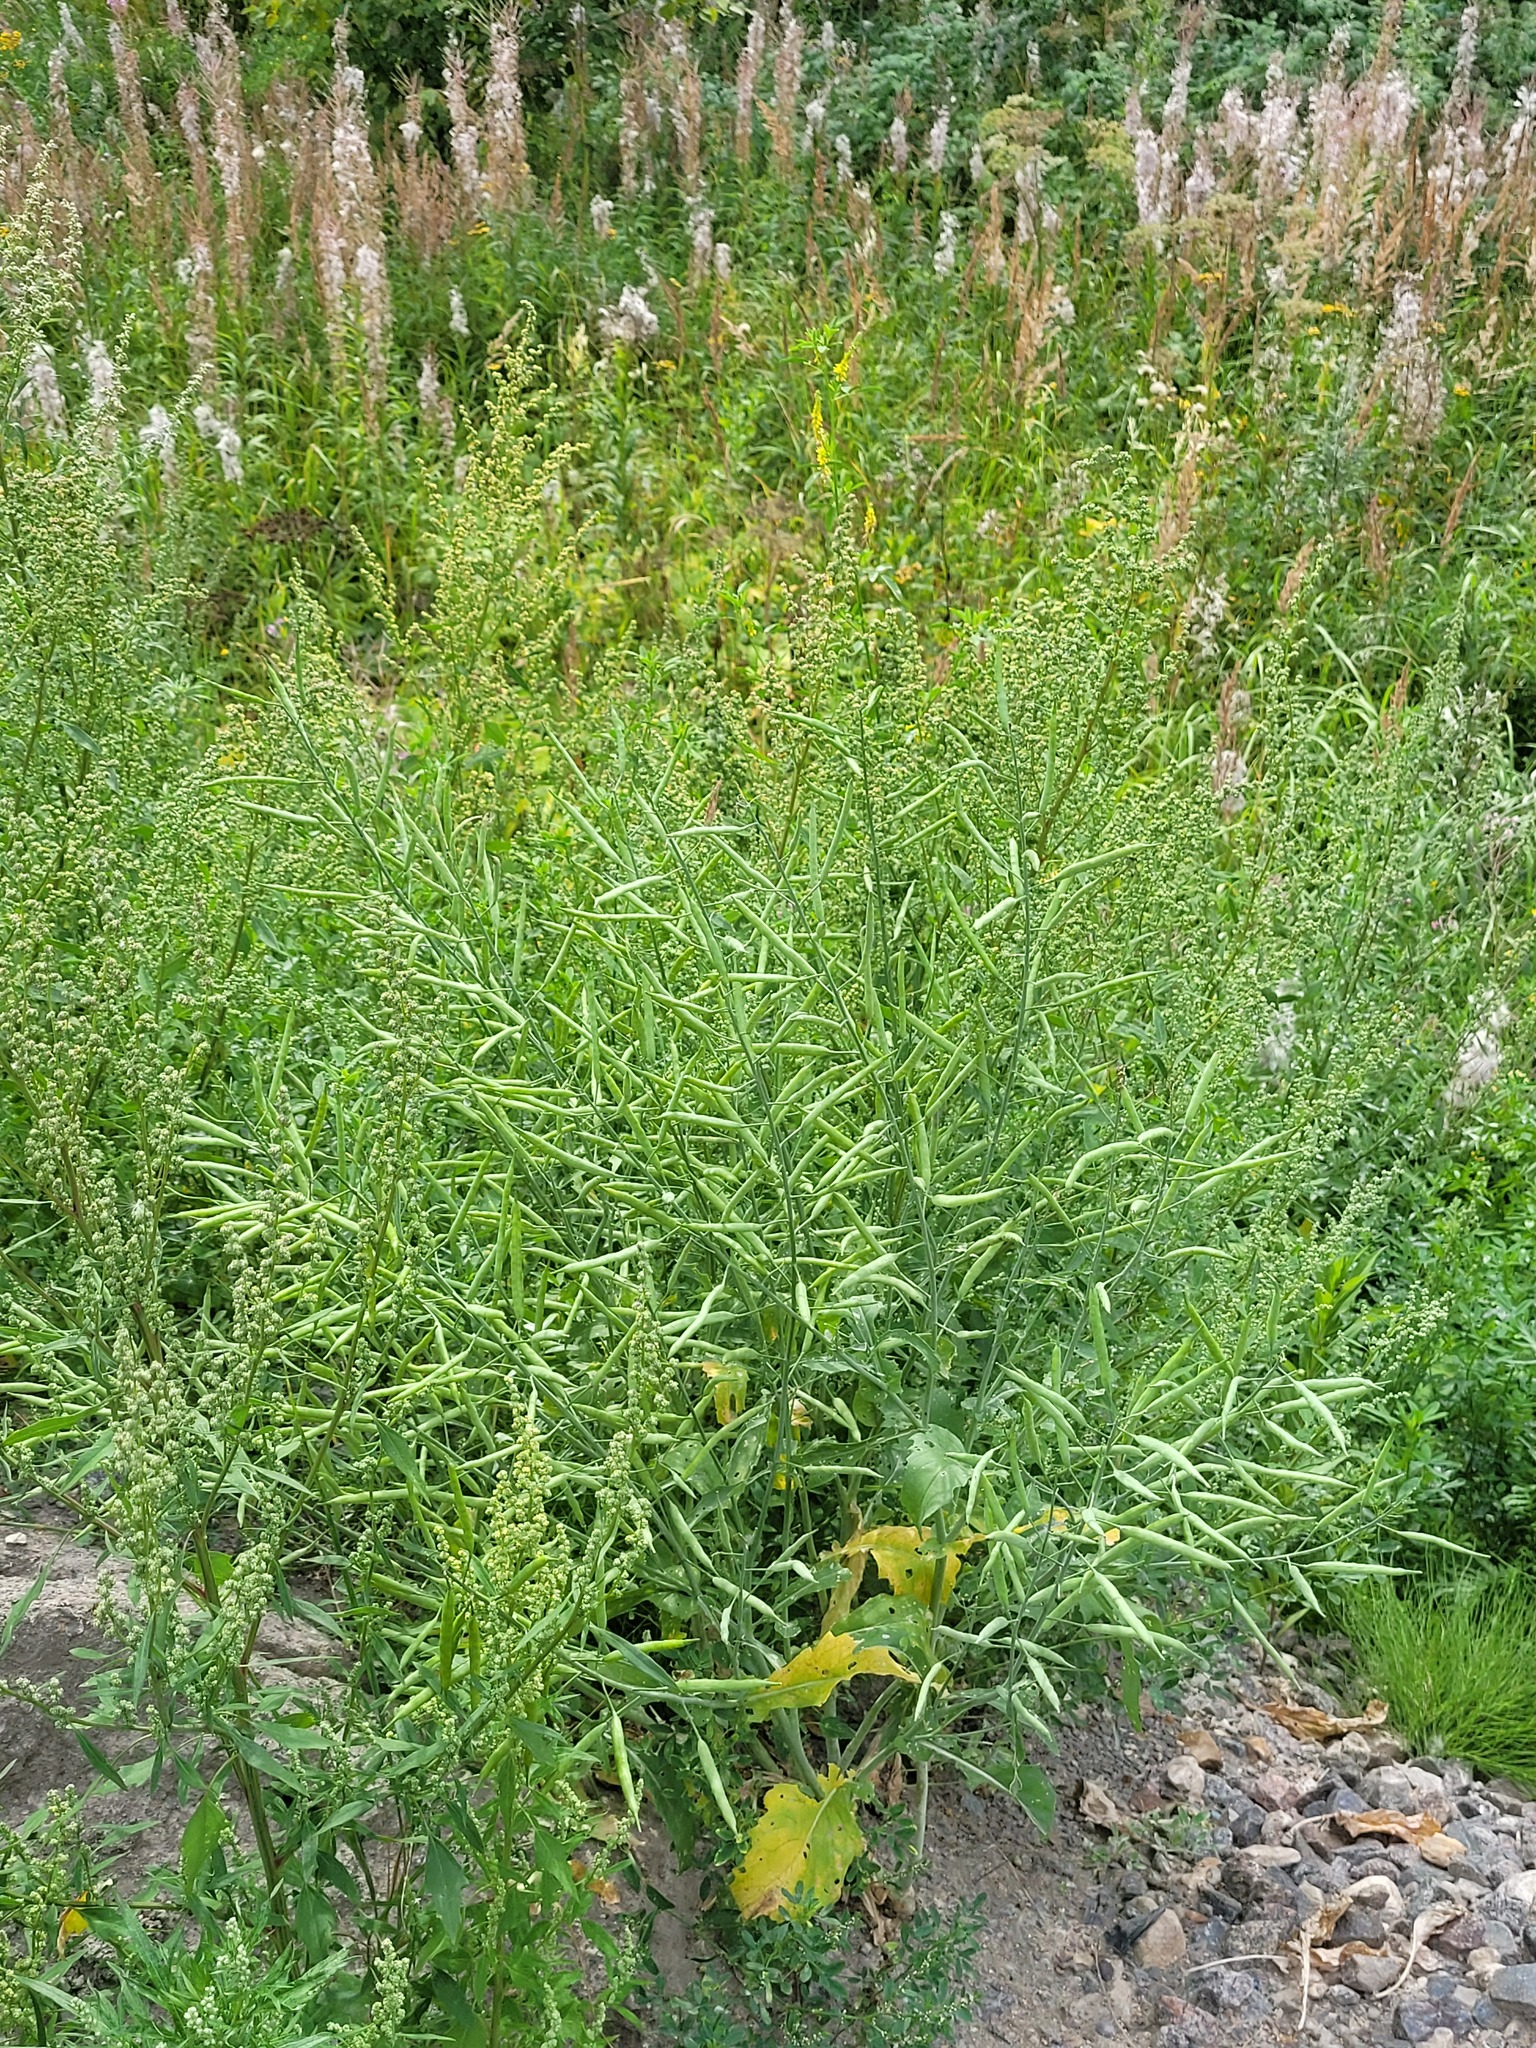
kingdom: Plantae
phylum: Tracheophyta
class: Magnoliopsida
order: Brassicales
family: Brassicaceae
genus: Brassica
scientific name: Brassica napus
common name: Rape
